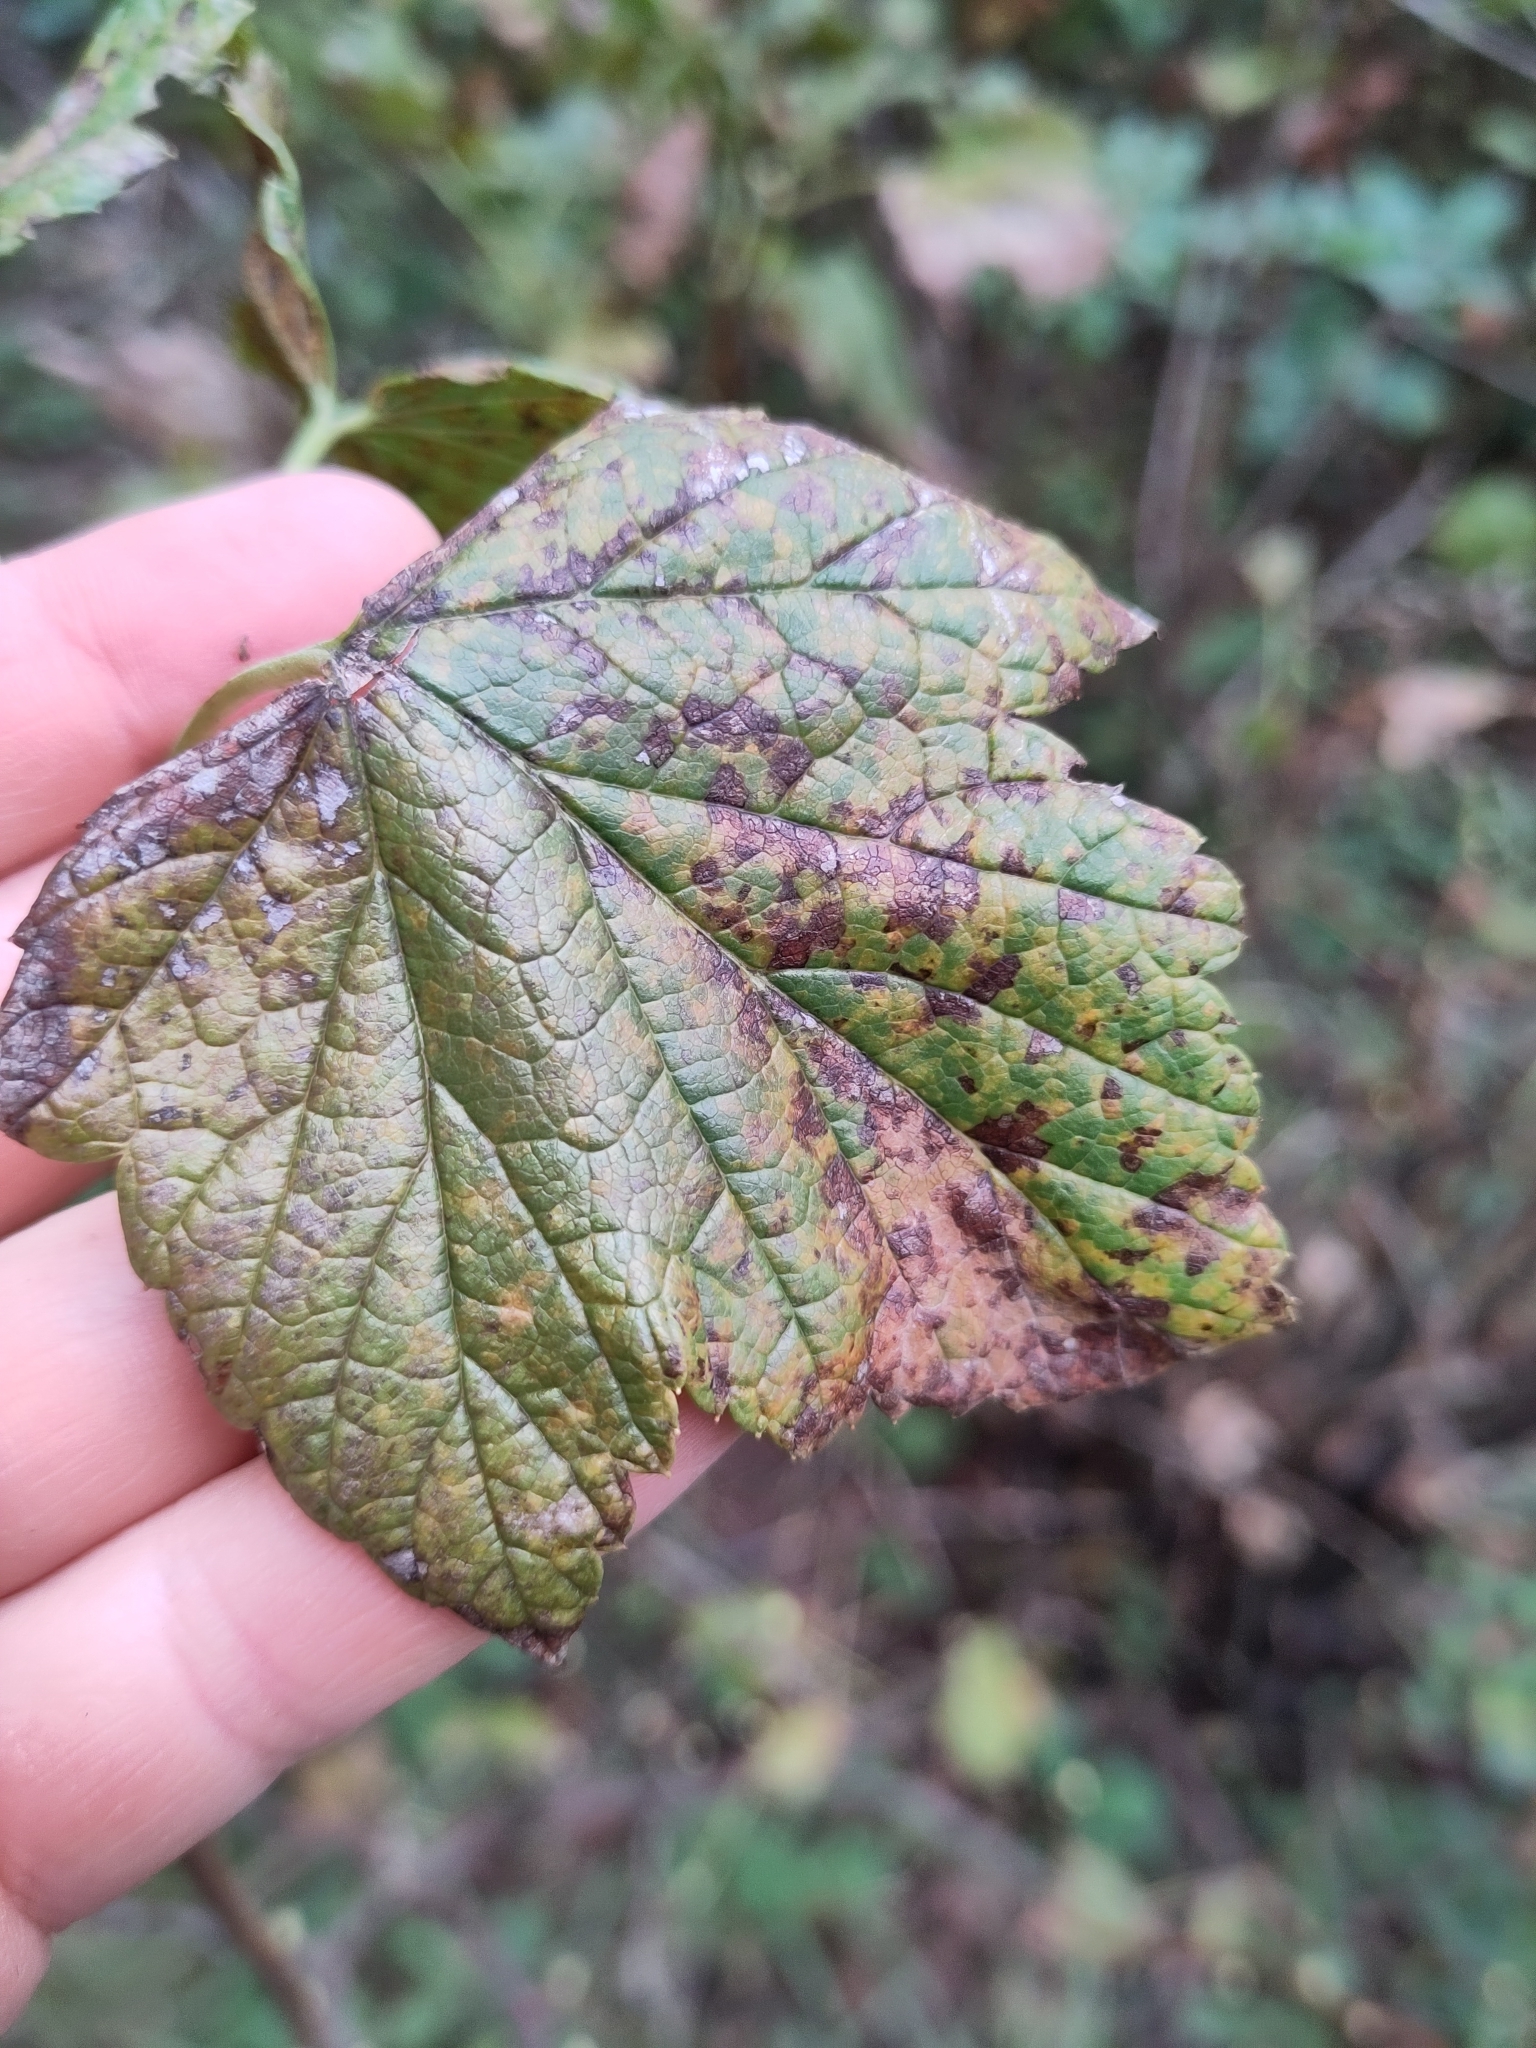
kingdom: Fungi
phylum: Basidiomycota
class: Pucciniomycetes
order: Pucciniales
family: Cronartiaceae
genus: Cronartium
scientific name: Cronartium ribicola
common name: White pine blister rust
